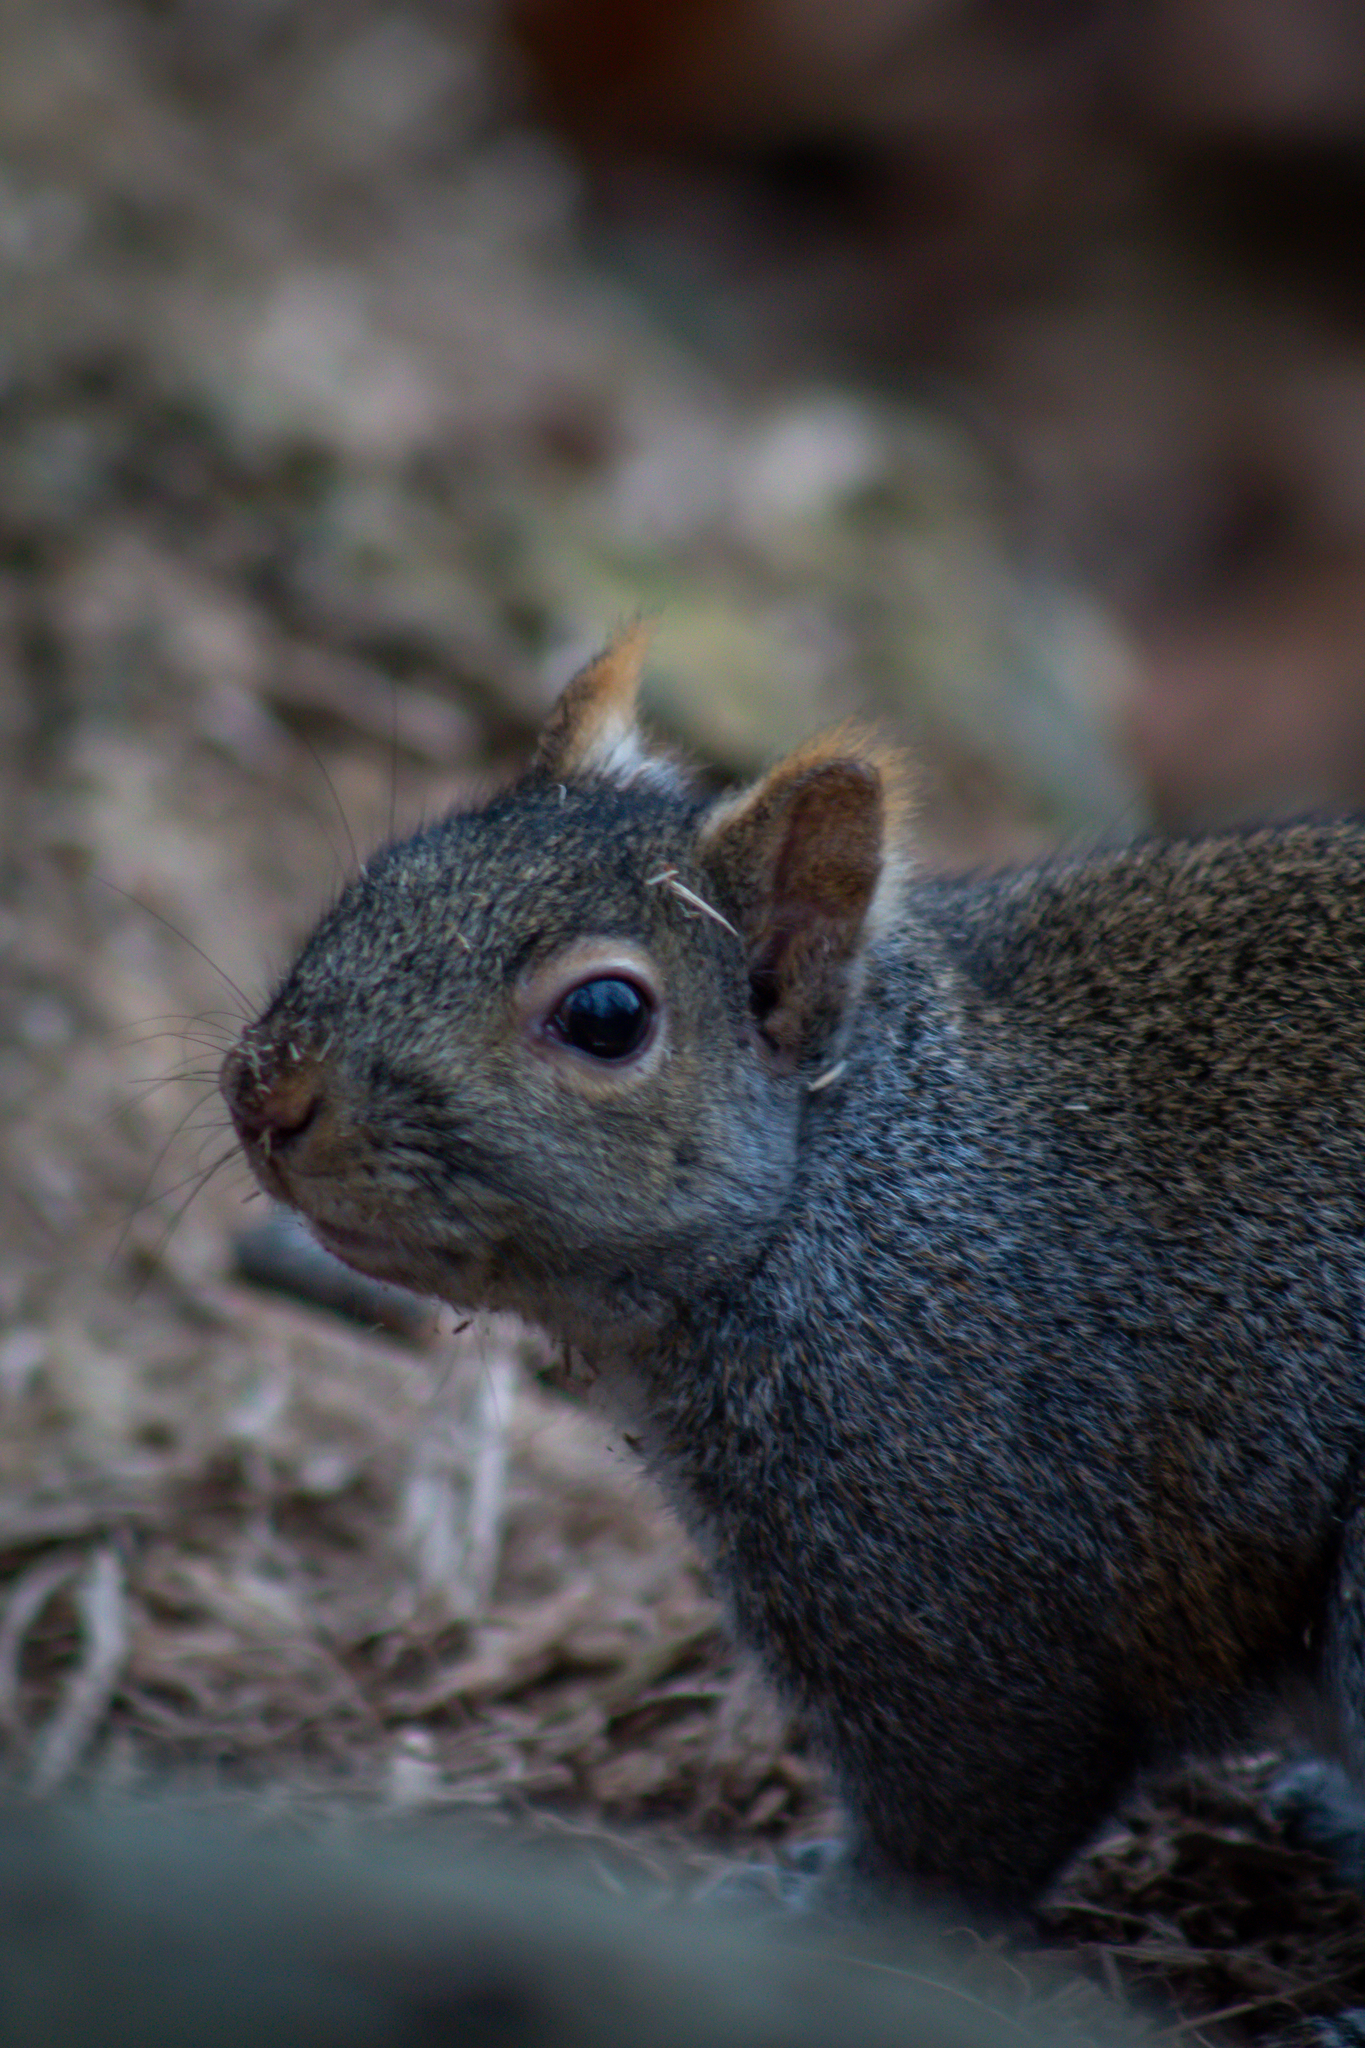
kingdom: Animalia
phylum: Chordata
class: Mammalia
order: Rodentia
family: Sciuridae
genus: Sciurus
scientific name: Sciurus carolinensis
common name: Eastern gray squirrel
